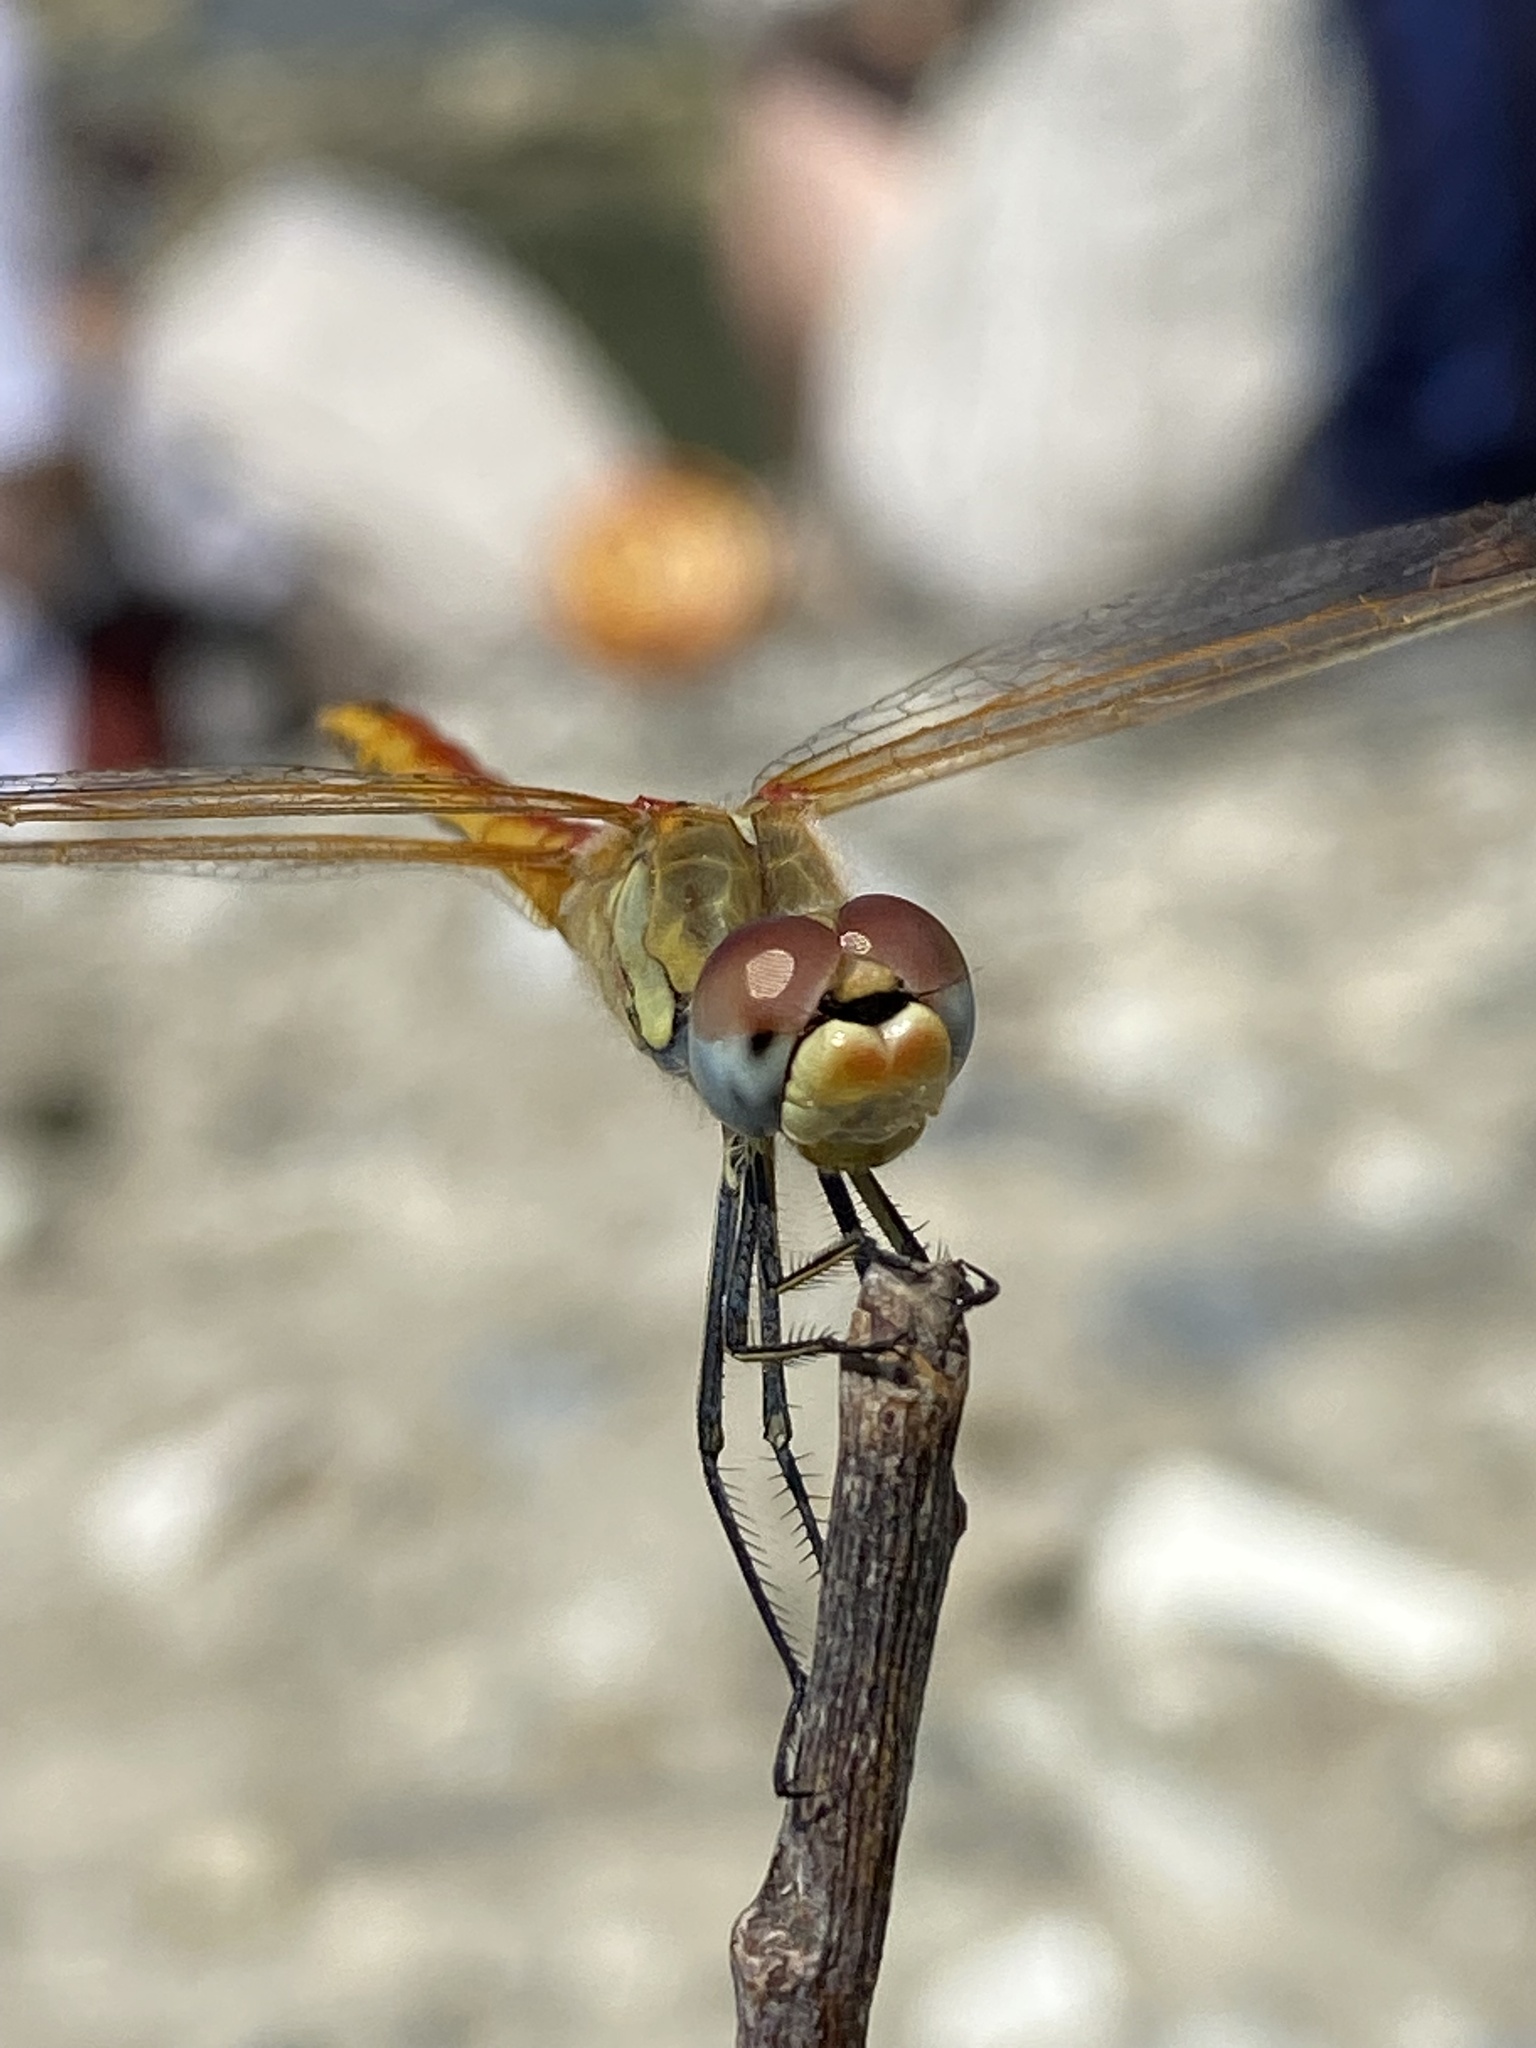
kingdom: Animalia
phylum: Arthropoda
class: Insecta
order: Odonata
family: Libellulidae
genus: Sympetrum
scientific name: Sympetrum fonscolombii
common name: Red-veined darter
